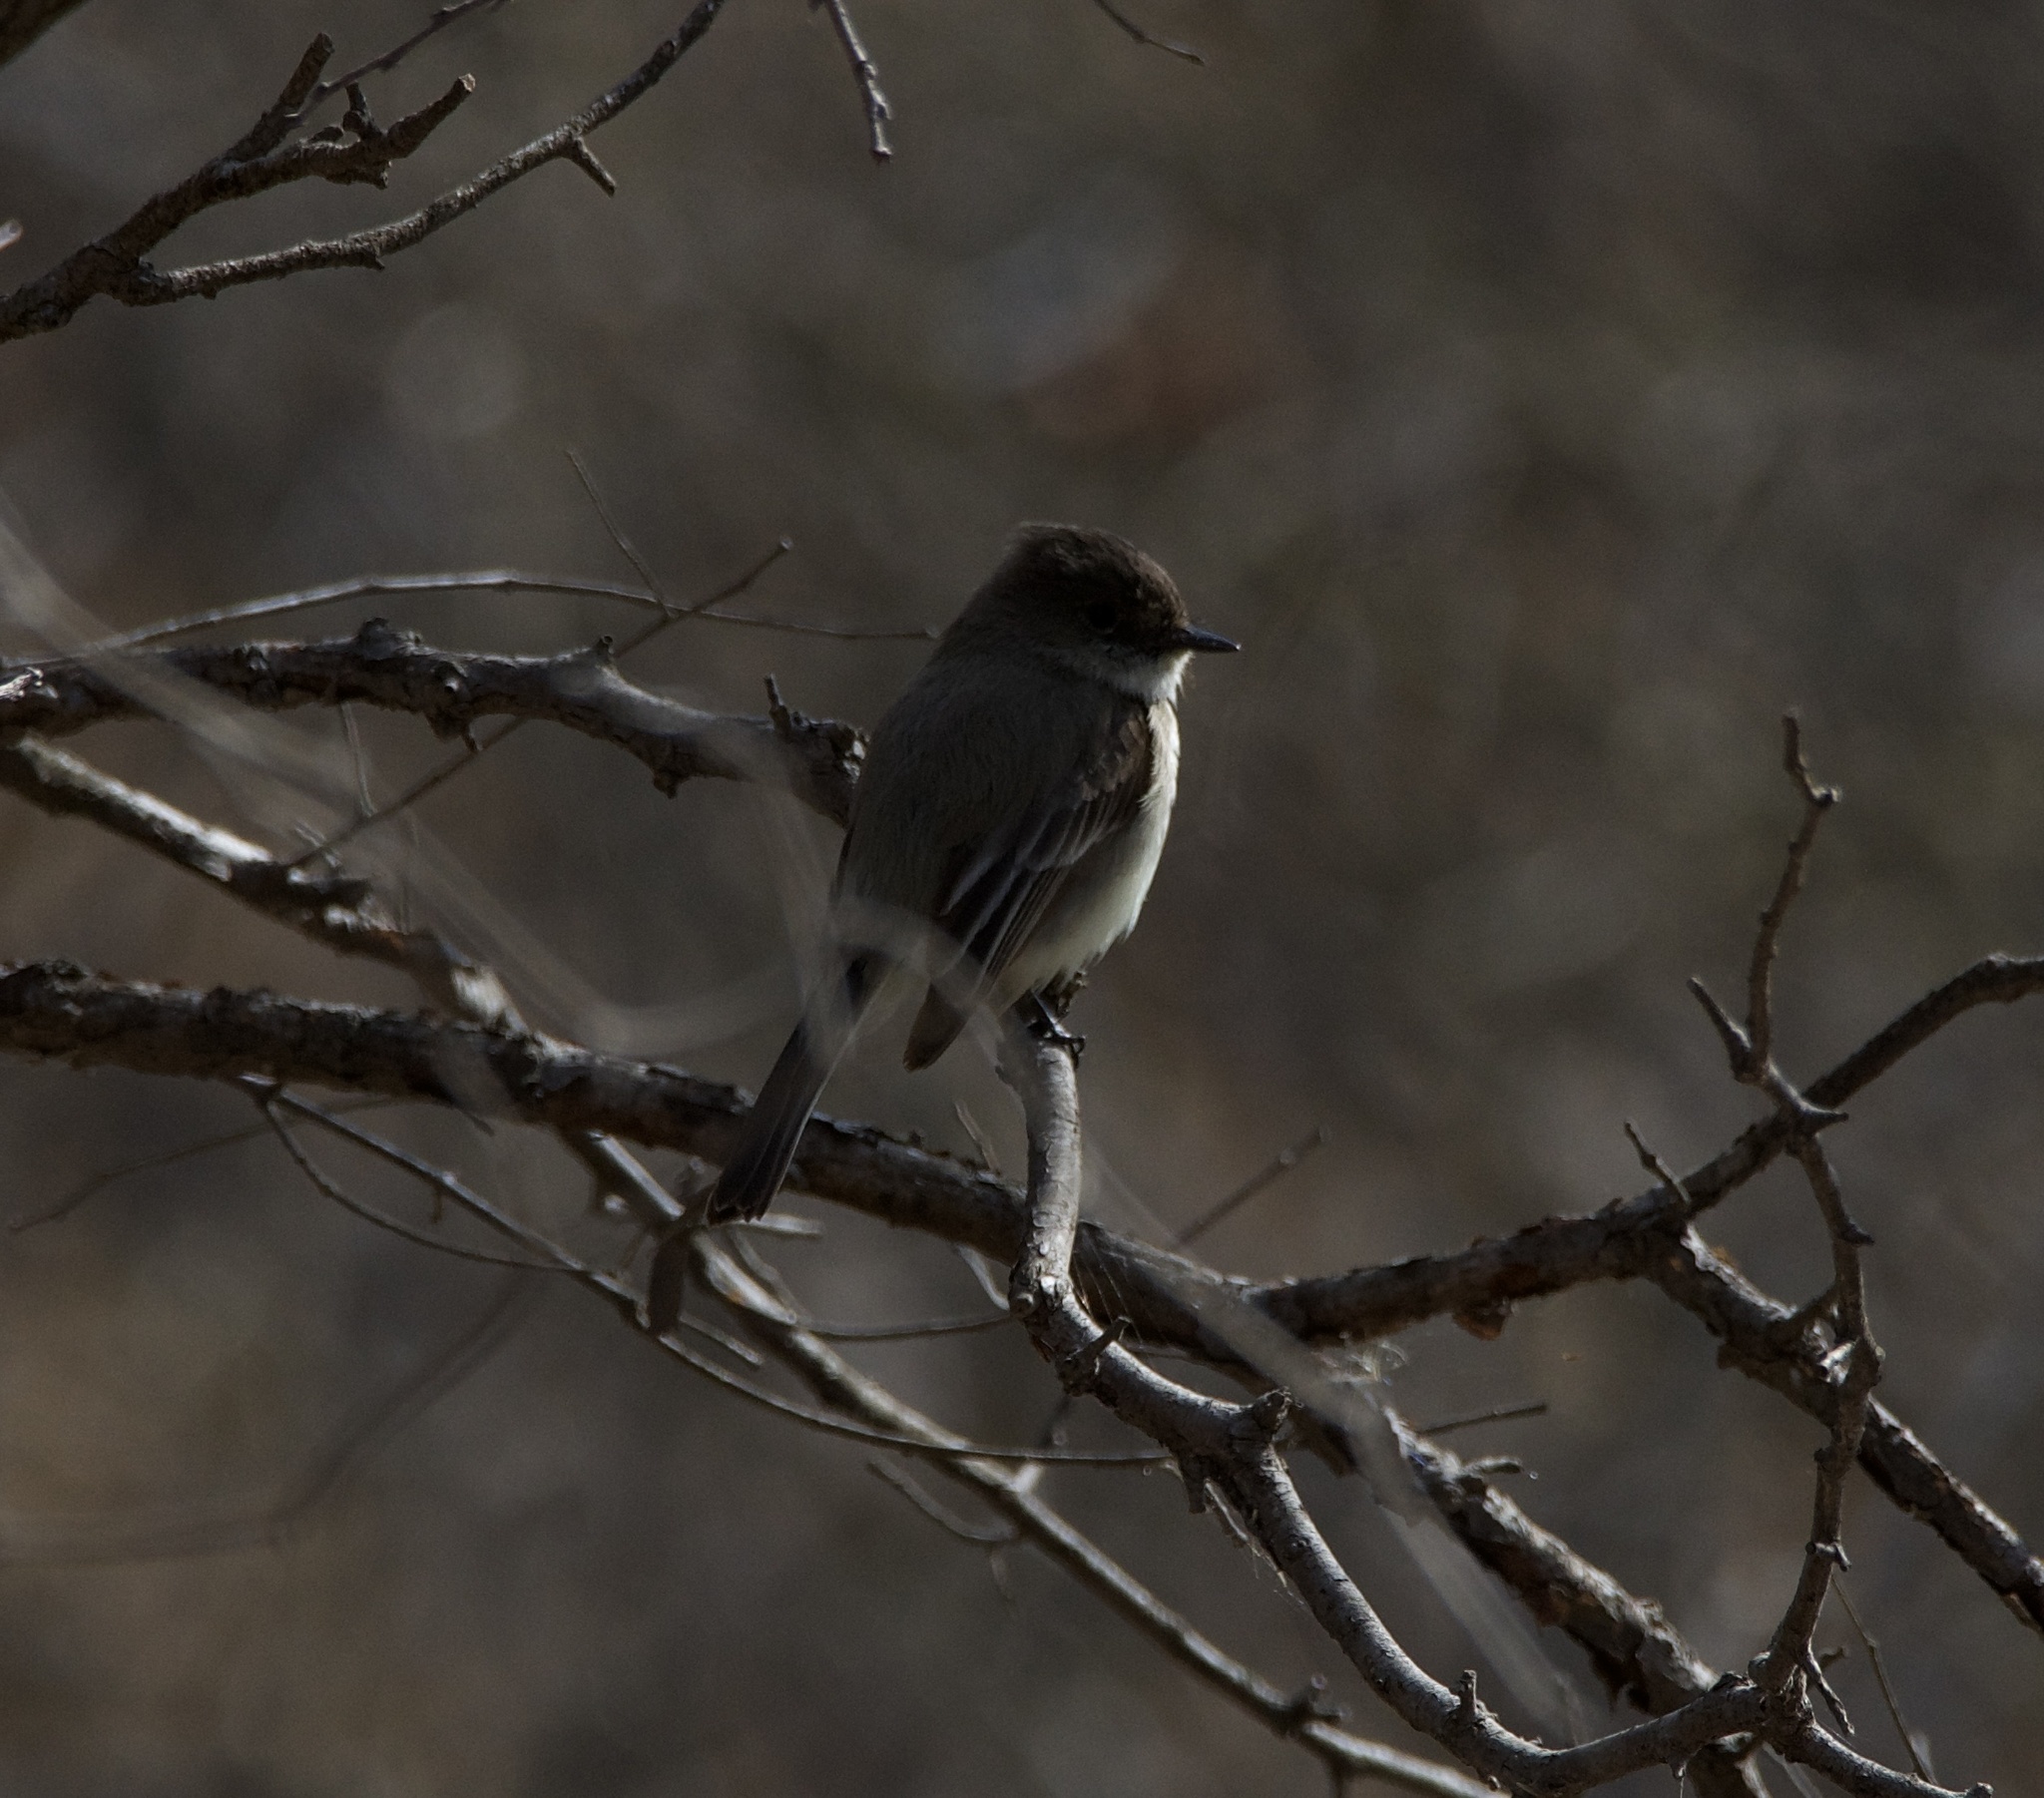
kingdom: Animalia
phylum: Chordata
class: Aves
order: Passeriformes
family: Tyrannidae
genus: Sayornis
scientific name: Sayornis phoebe
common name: Eastern phoebe
